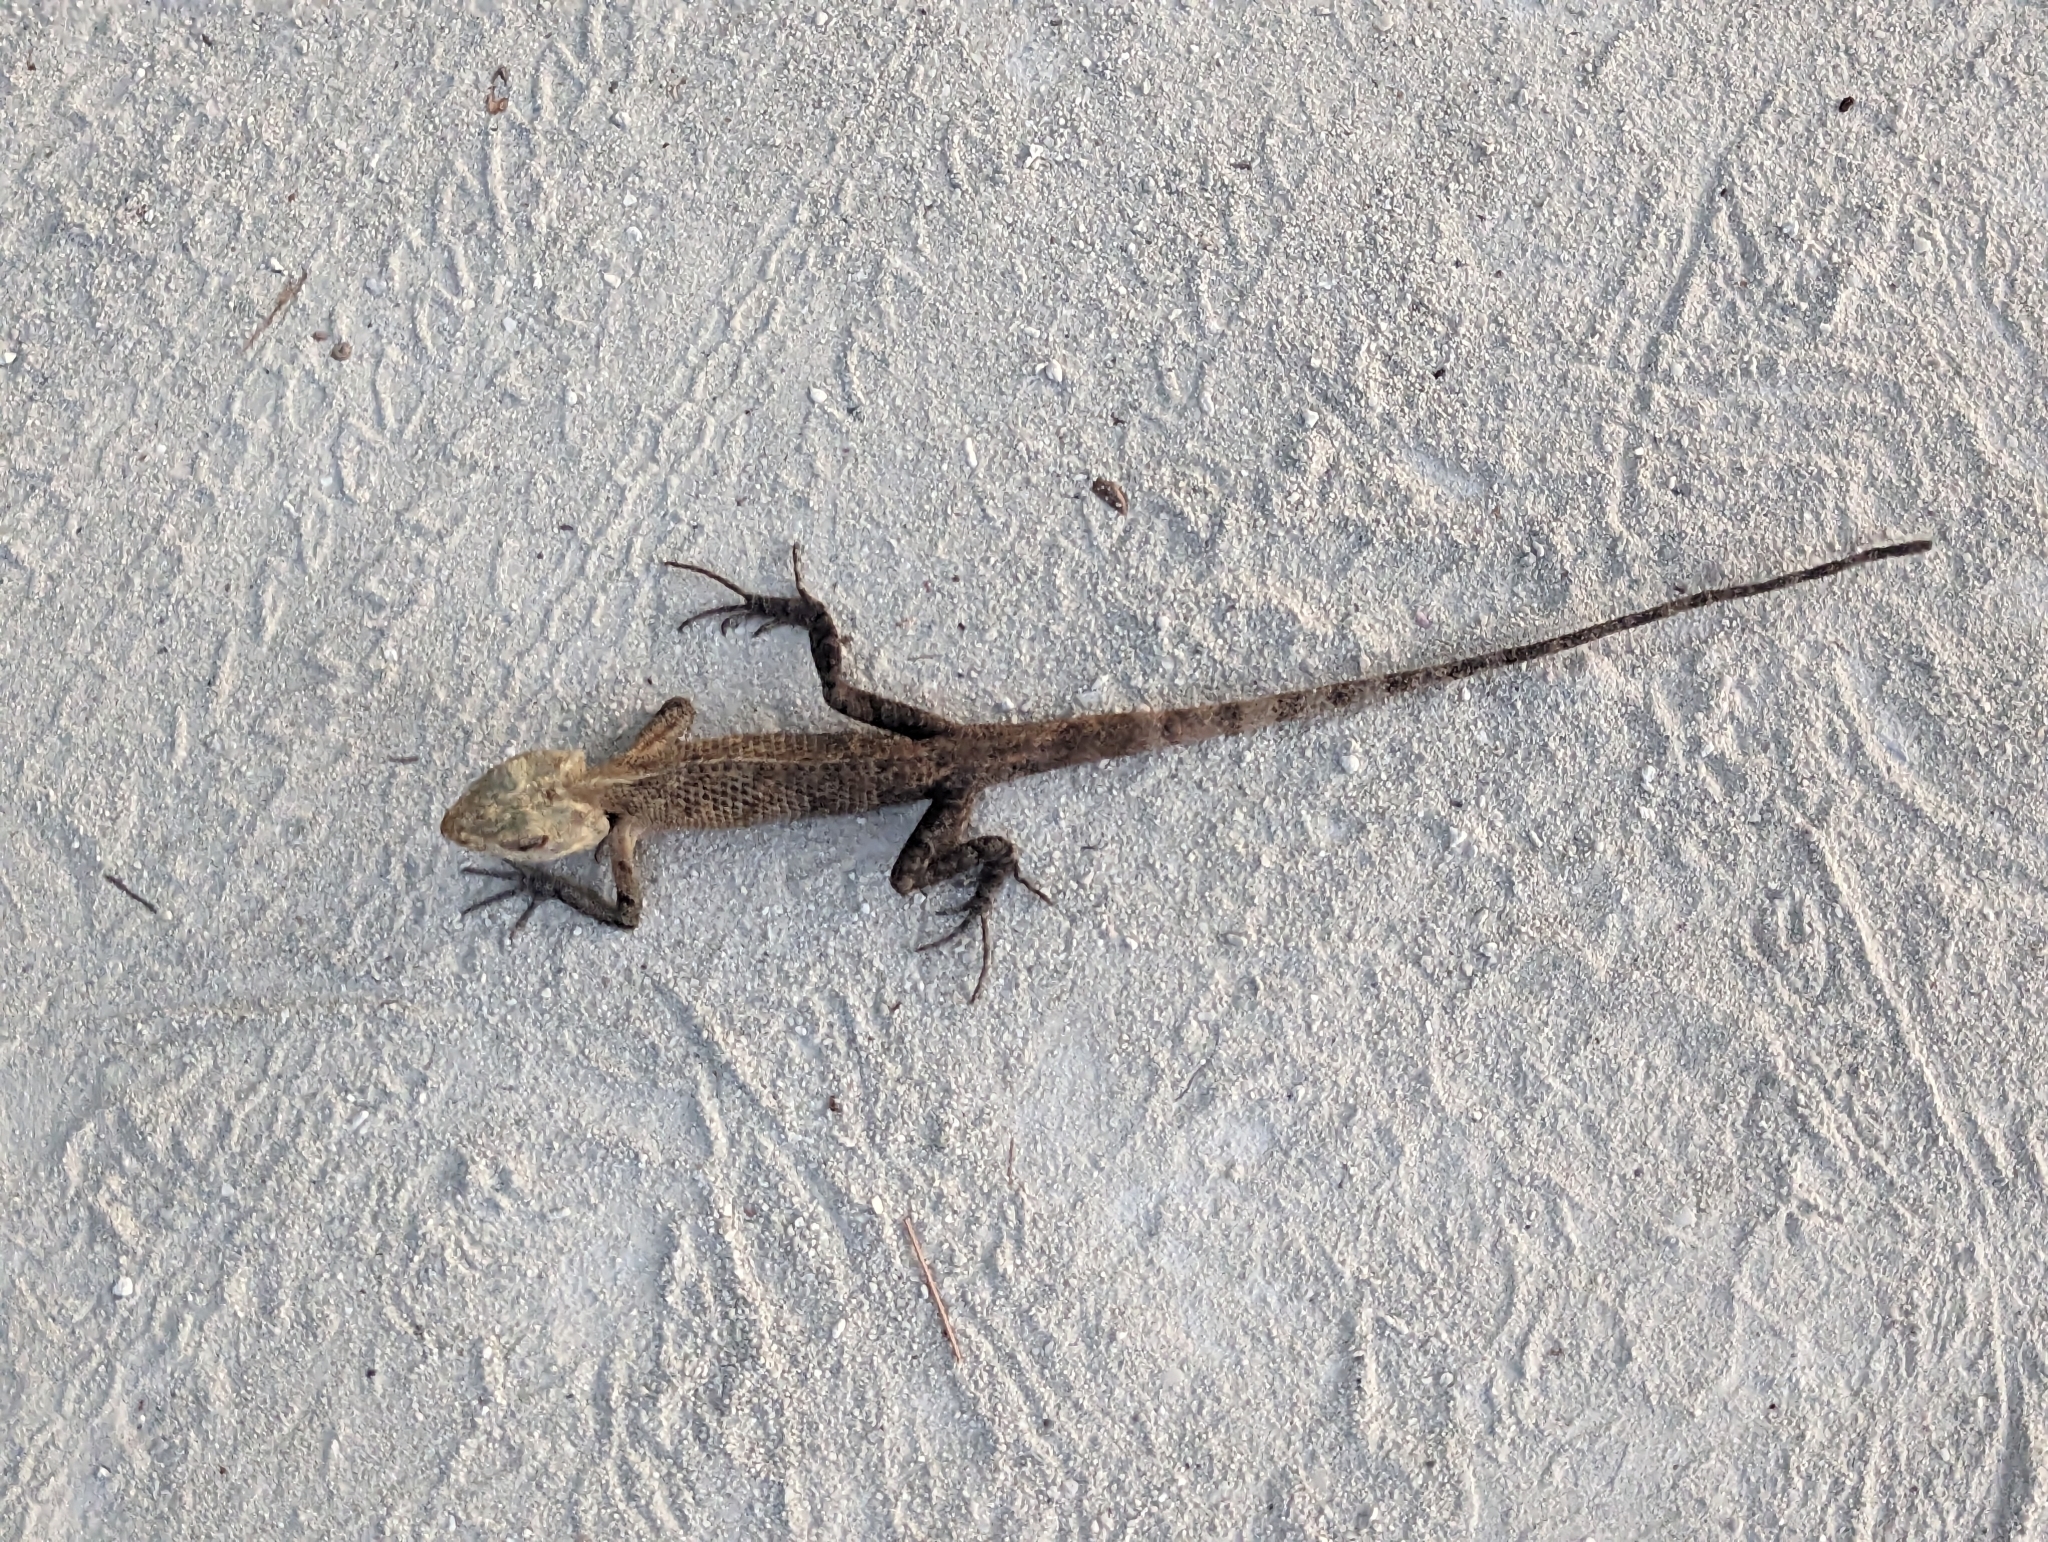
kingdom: Animalia
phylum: Chordata
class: Squamata
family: Agamidae
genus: Calotes
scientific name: Calotes versicolor
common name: Oriental garden lizard
